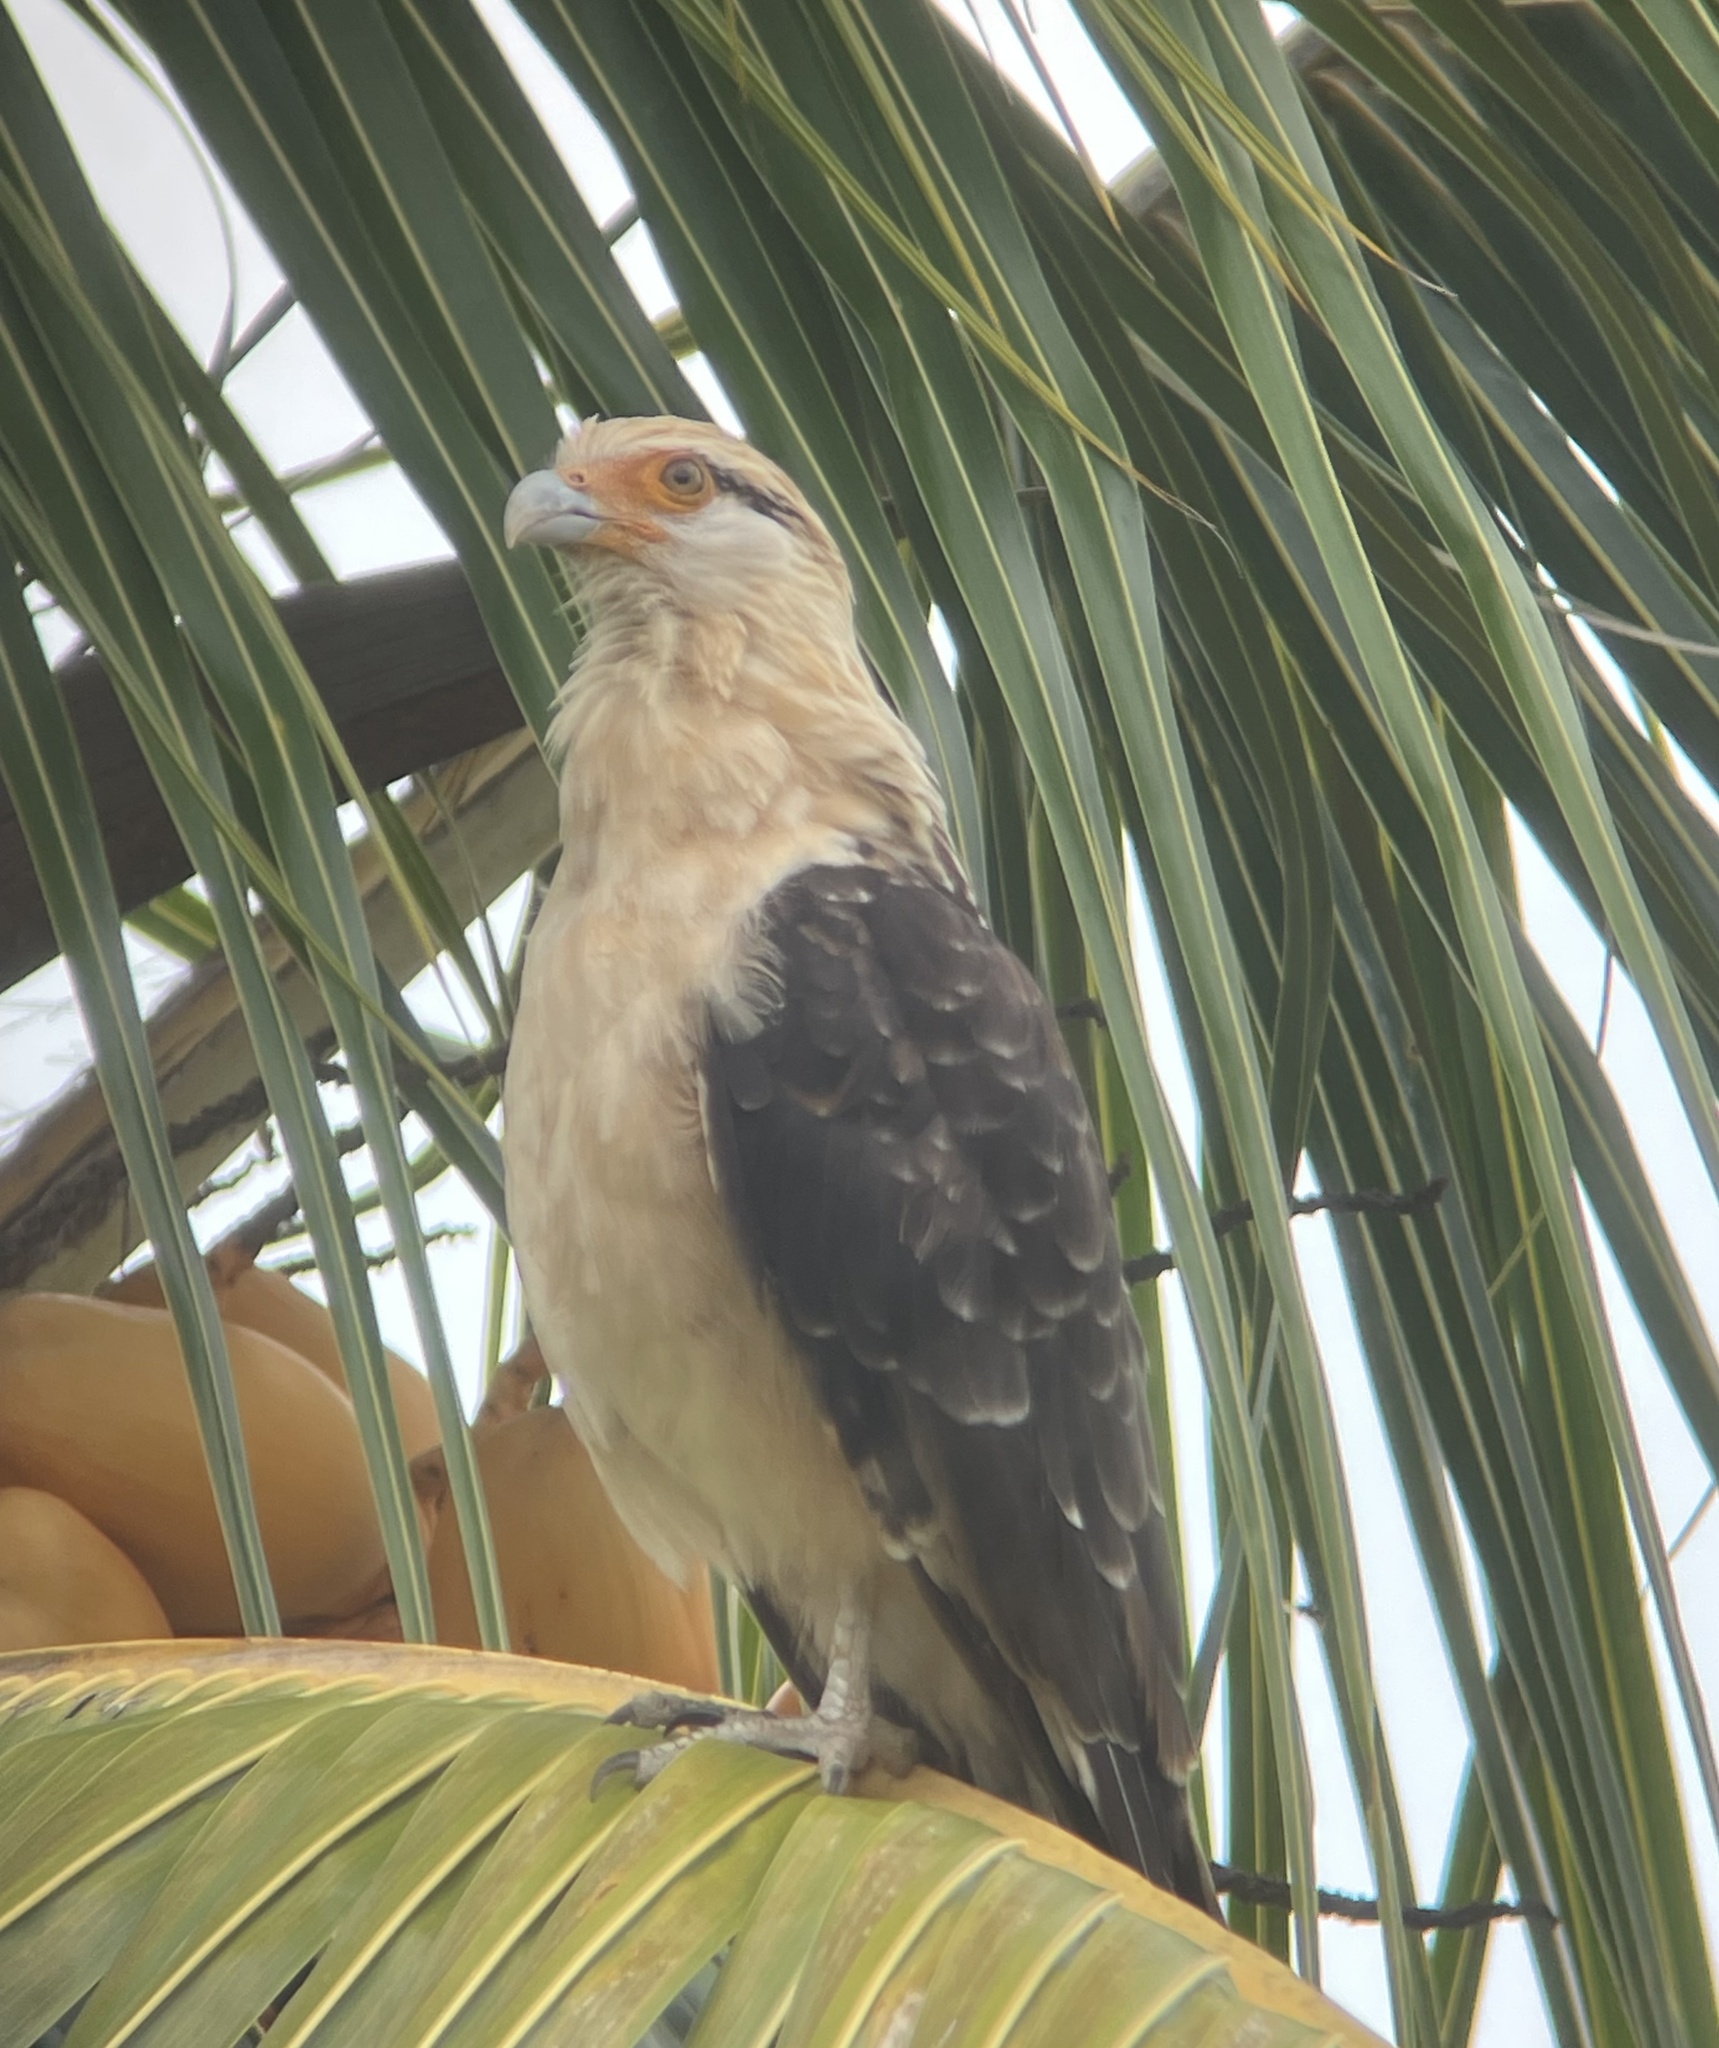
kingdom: Animalia
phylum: Chordata
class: Aves
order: Falconiformes
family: Falconidae
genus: Daptrius
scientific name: Daptrius
